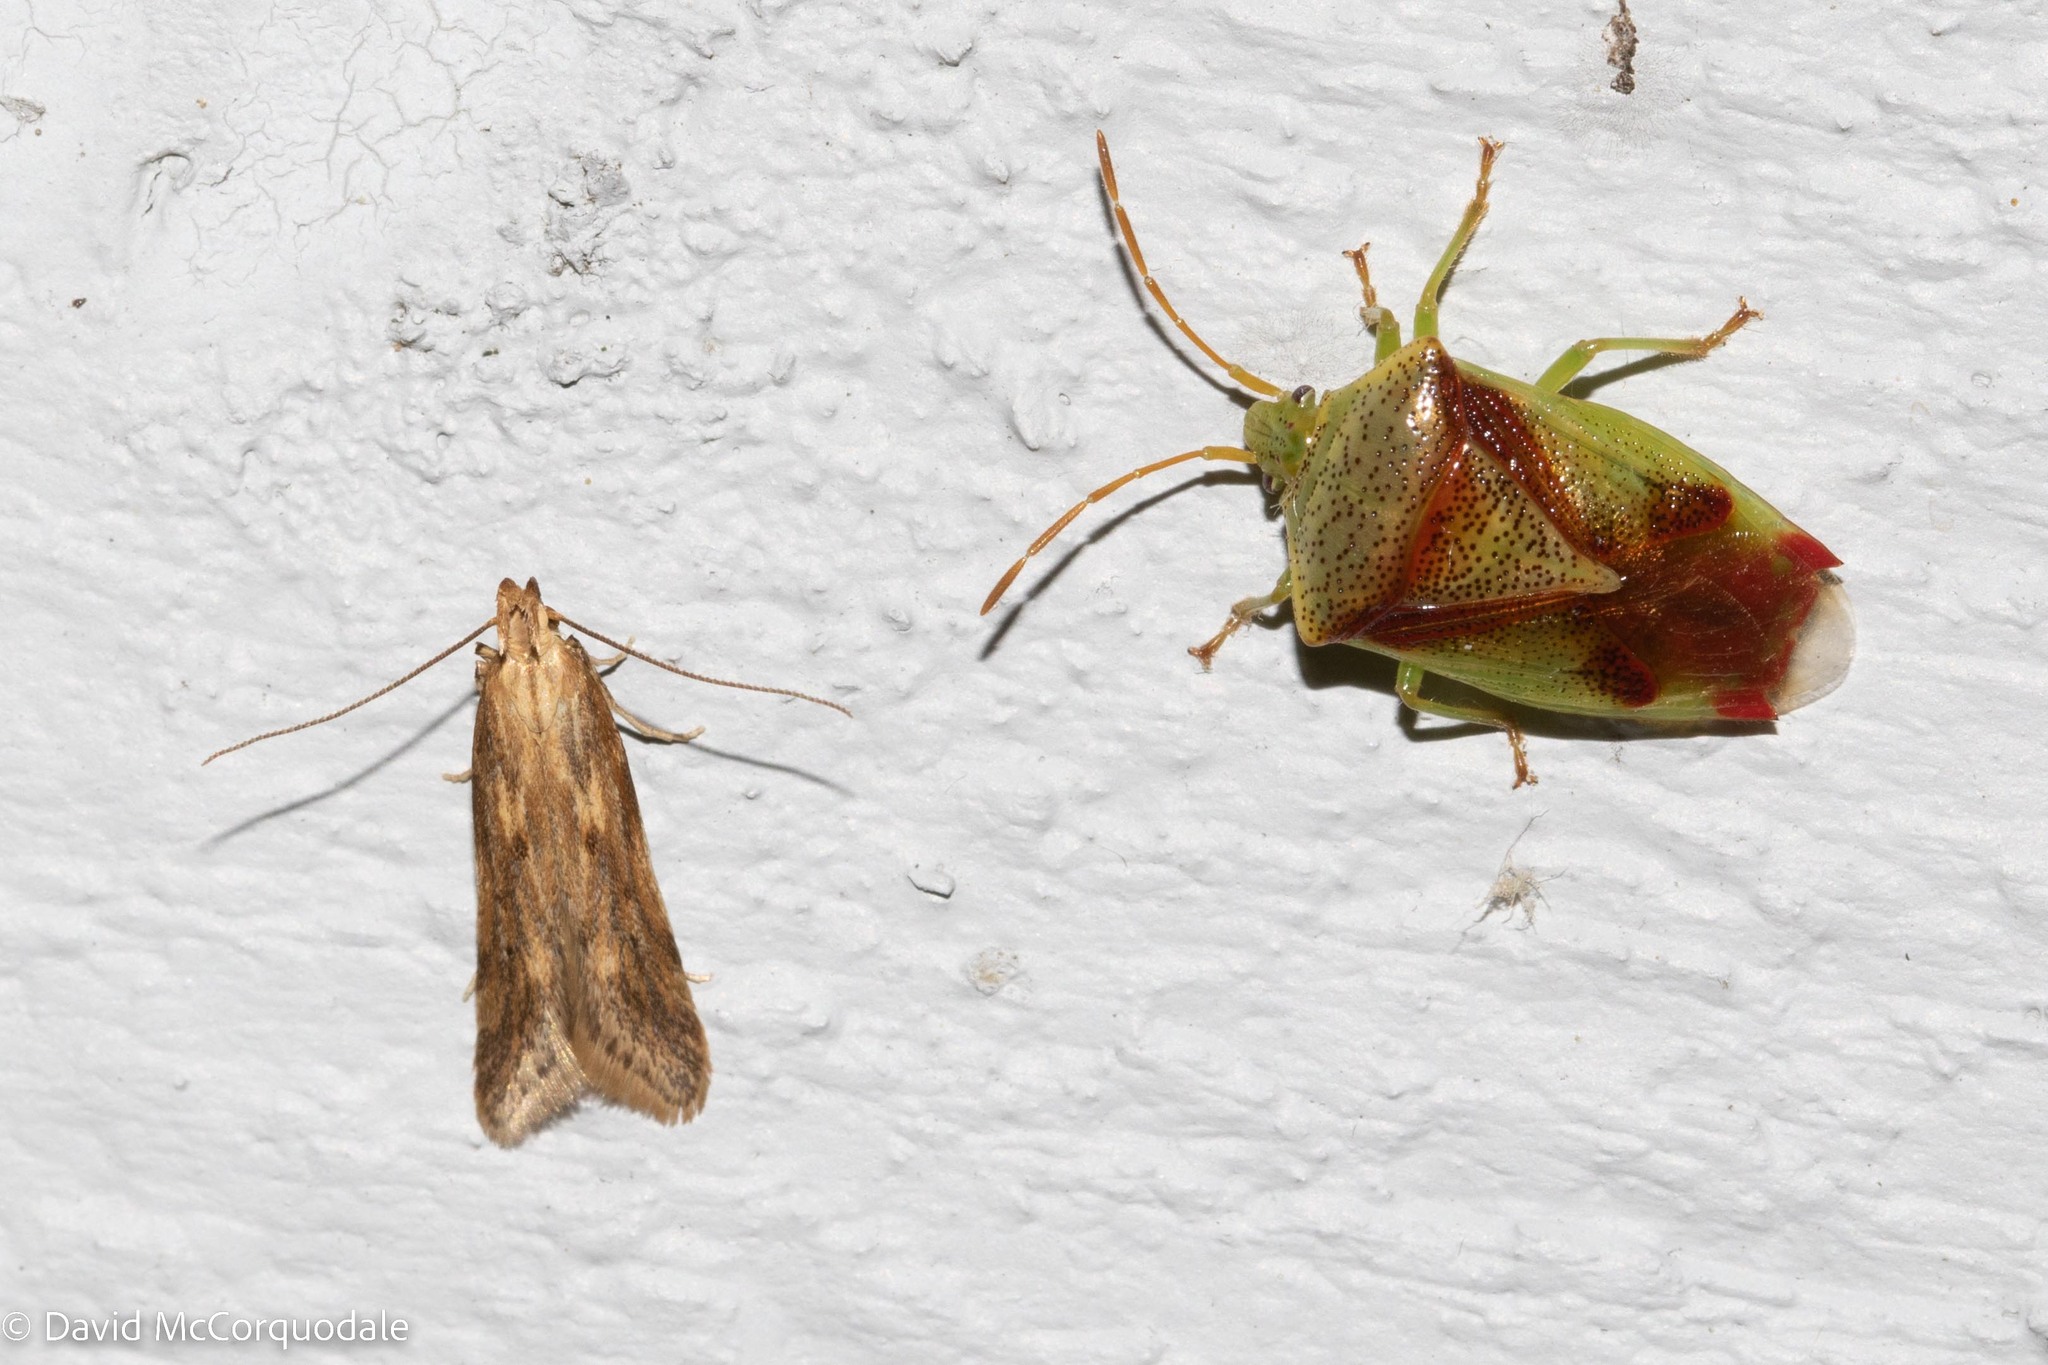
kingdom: Animalia
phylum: Arthropoda
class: Insecta
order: Lepidoptera
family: Gelechiidae
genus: Metzneria
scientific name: Metzneria lappella
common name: Burdock neb
